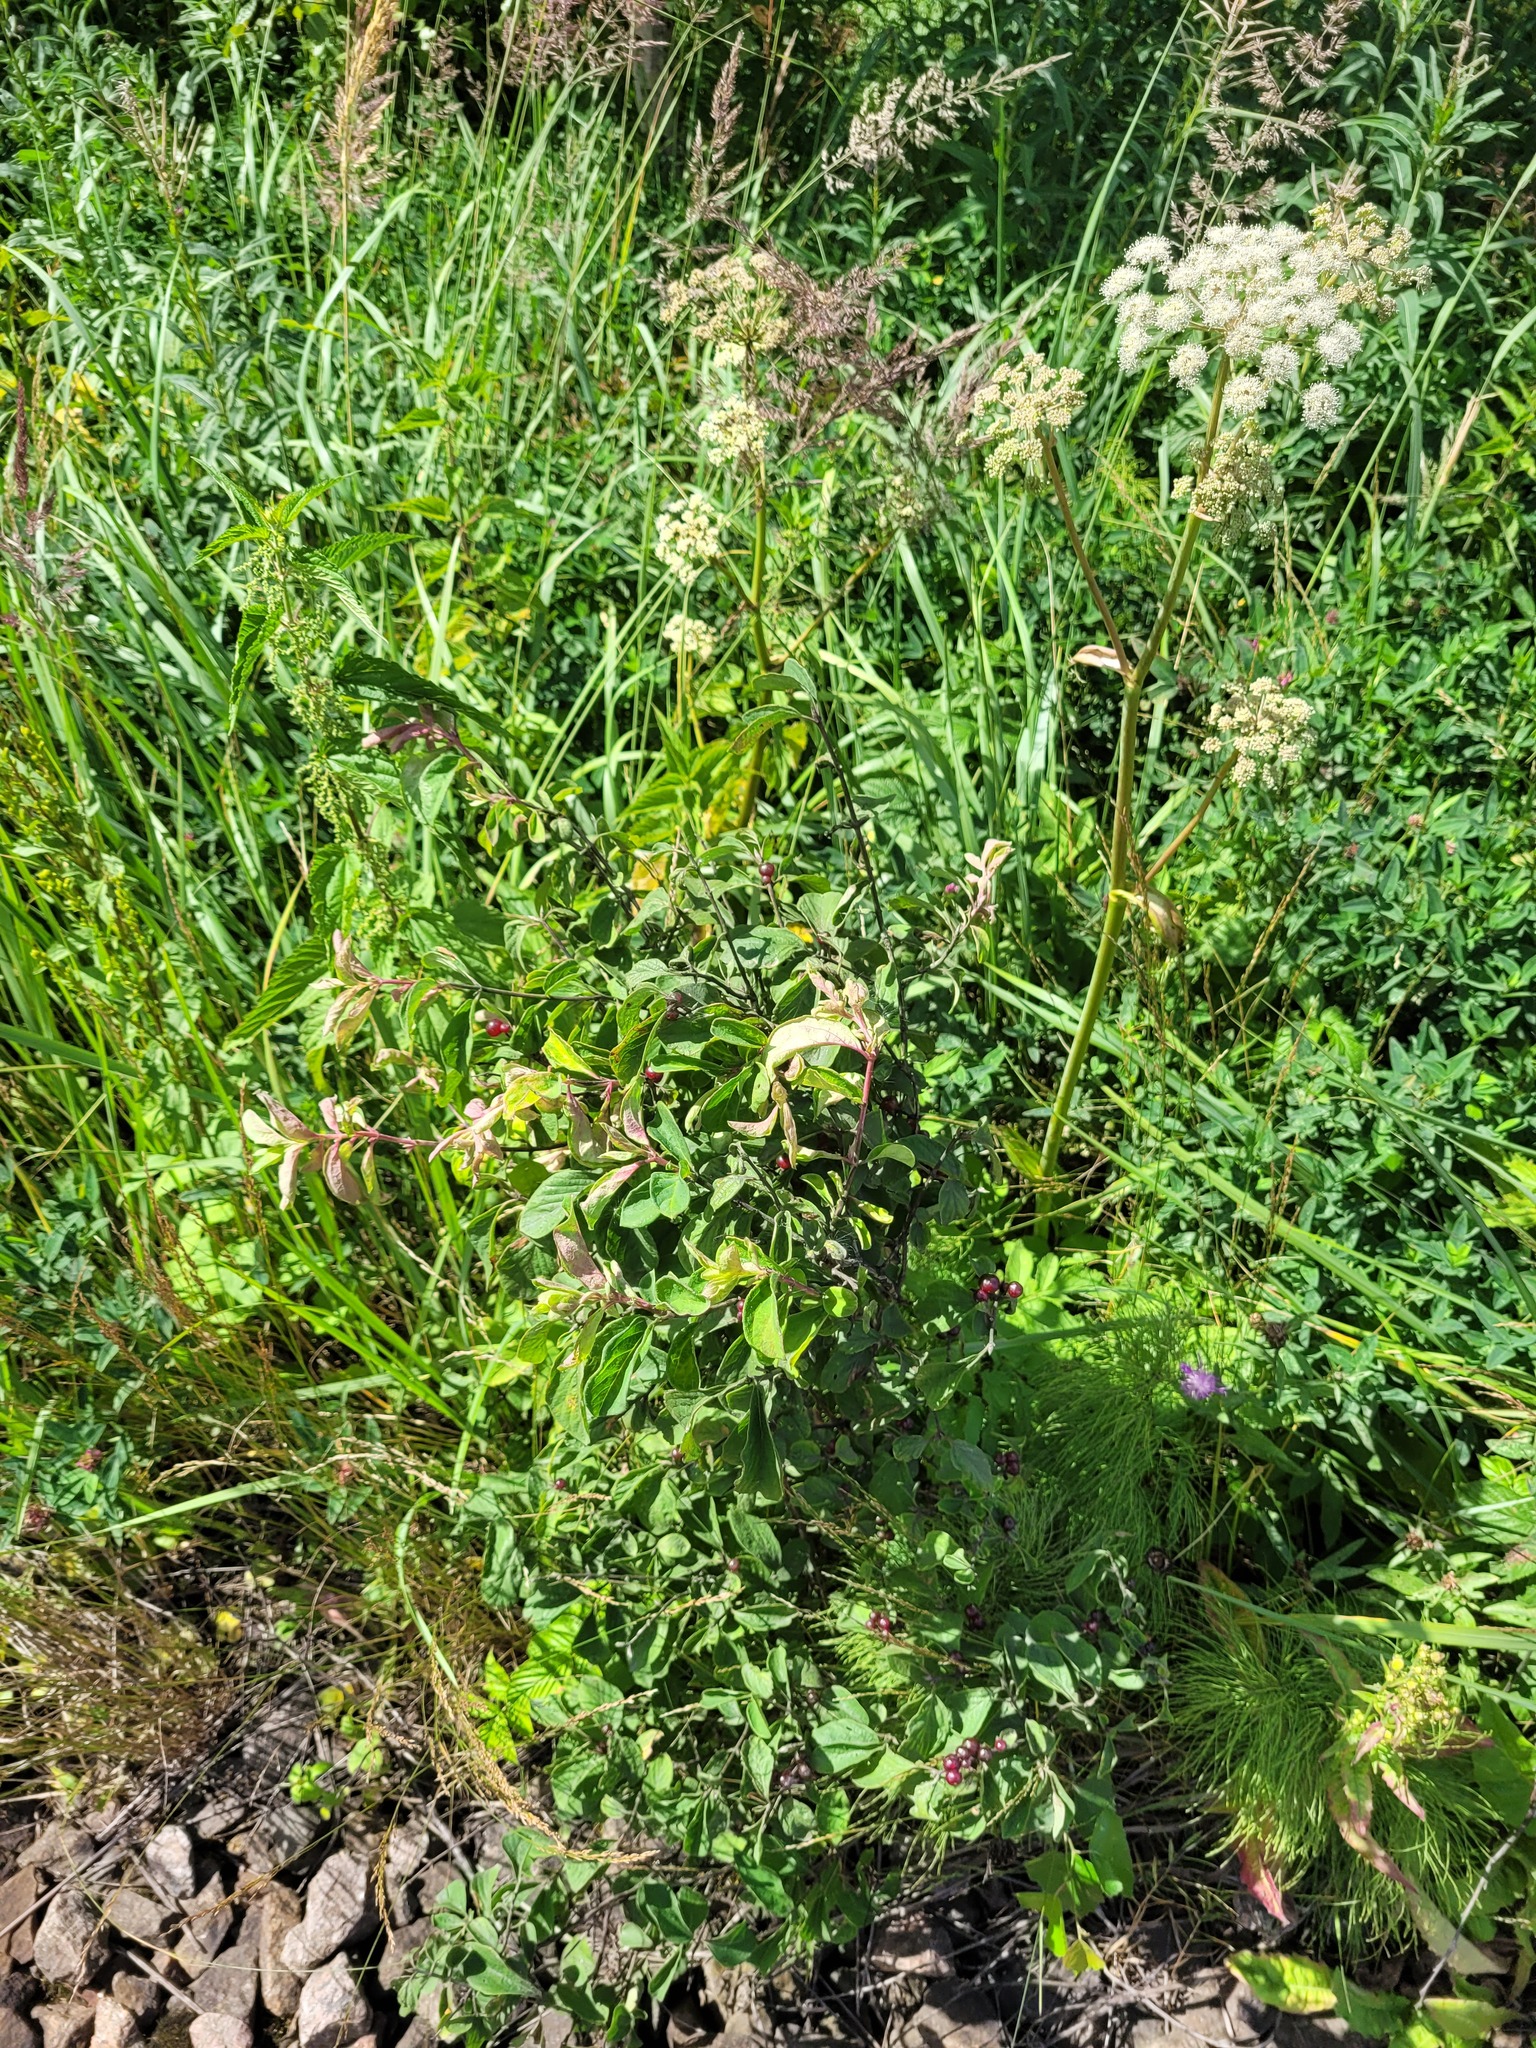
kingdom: Plantae
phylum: Tracheophyta
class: Magnoliopsida
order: Dipsacales
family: Caprifoliaceae
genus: Lonicera
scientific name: Lonicera xylosteum
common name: Fly honeysuckle
